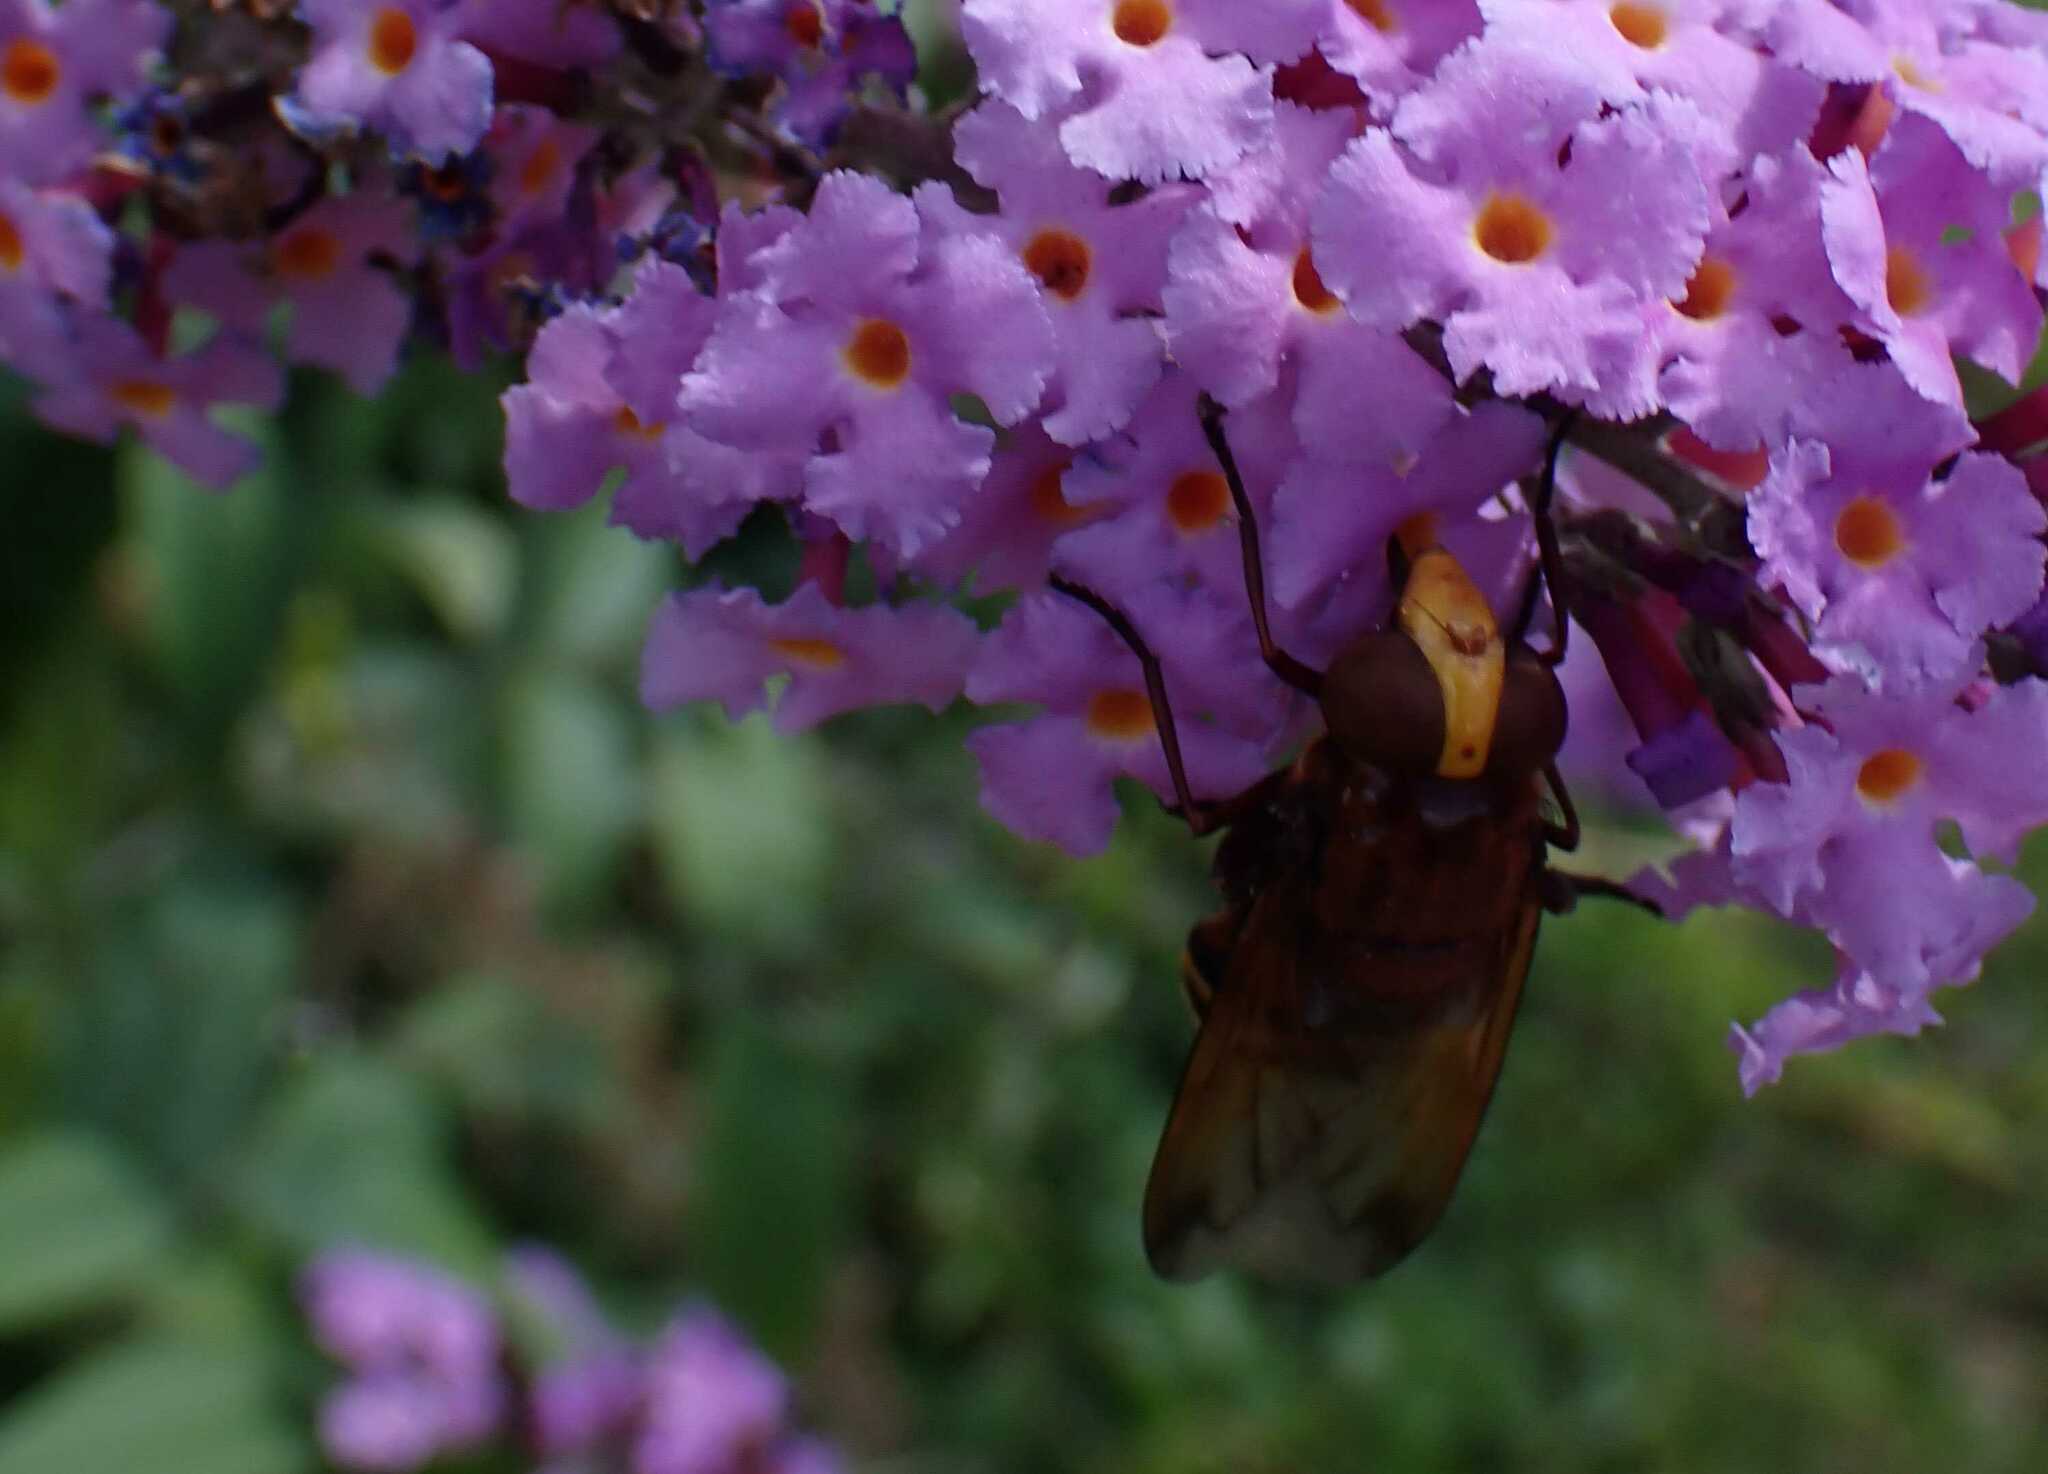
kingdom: Animalia
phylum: Arthropoda
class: Insecta
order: Diptera
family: Syrphidae
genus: Volucella
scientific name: Volucella zonaria
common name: Hornet hoverfly
